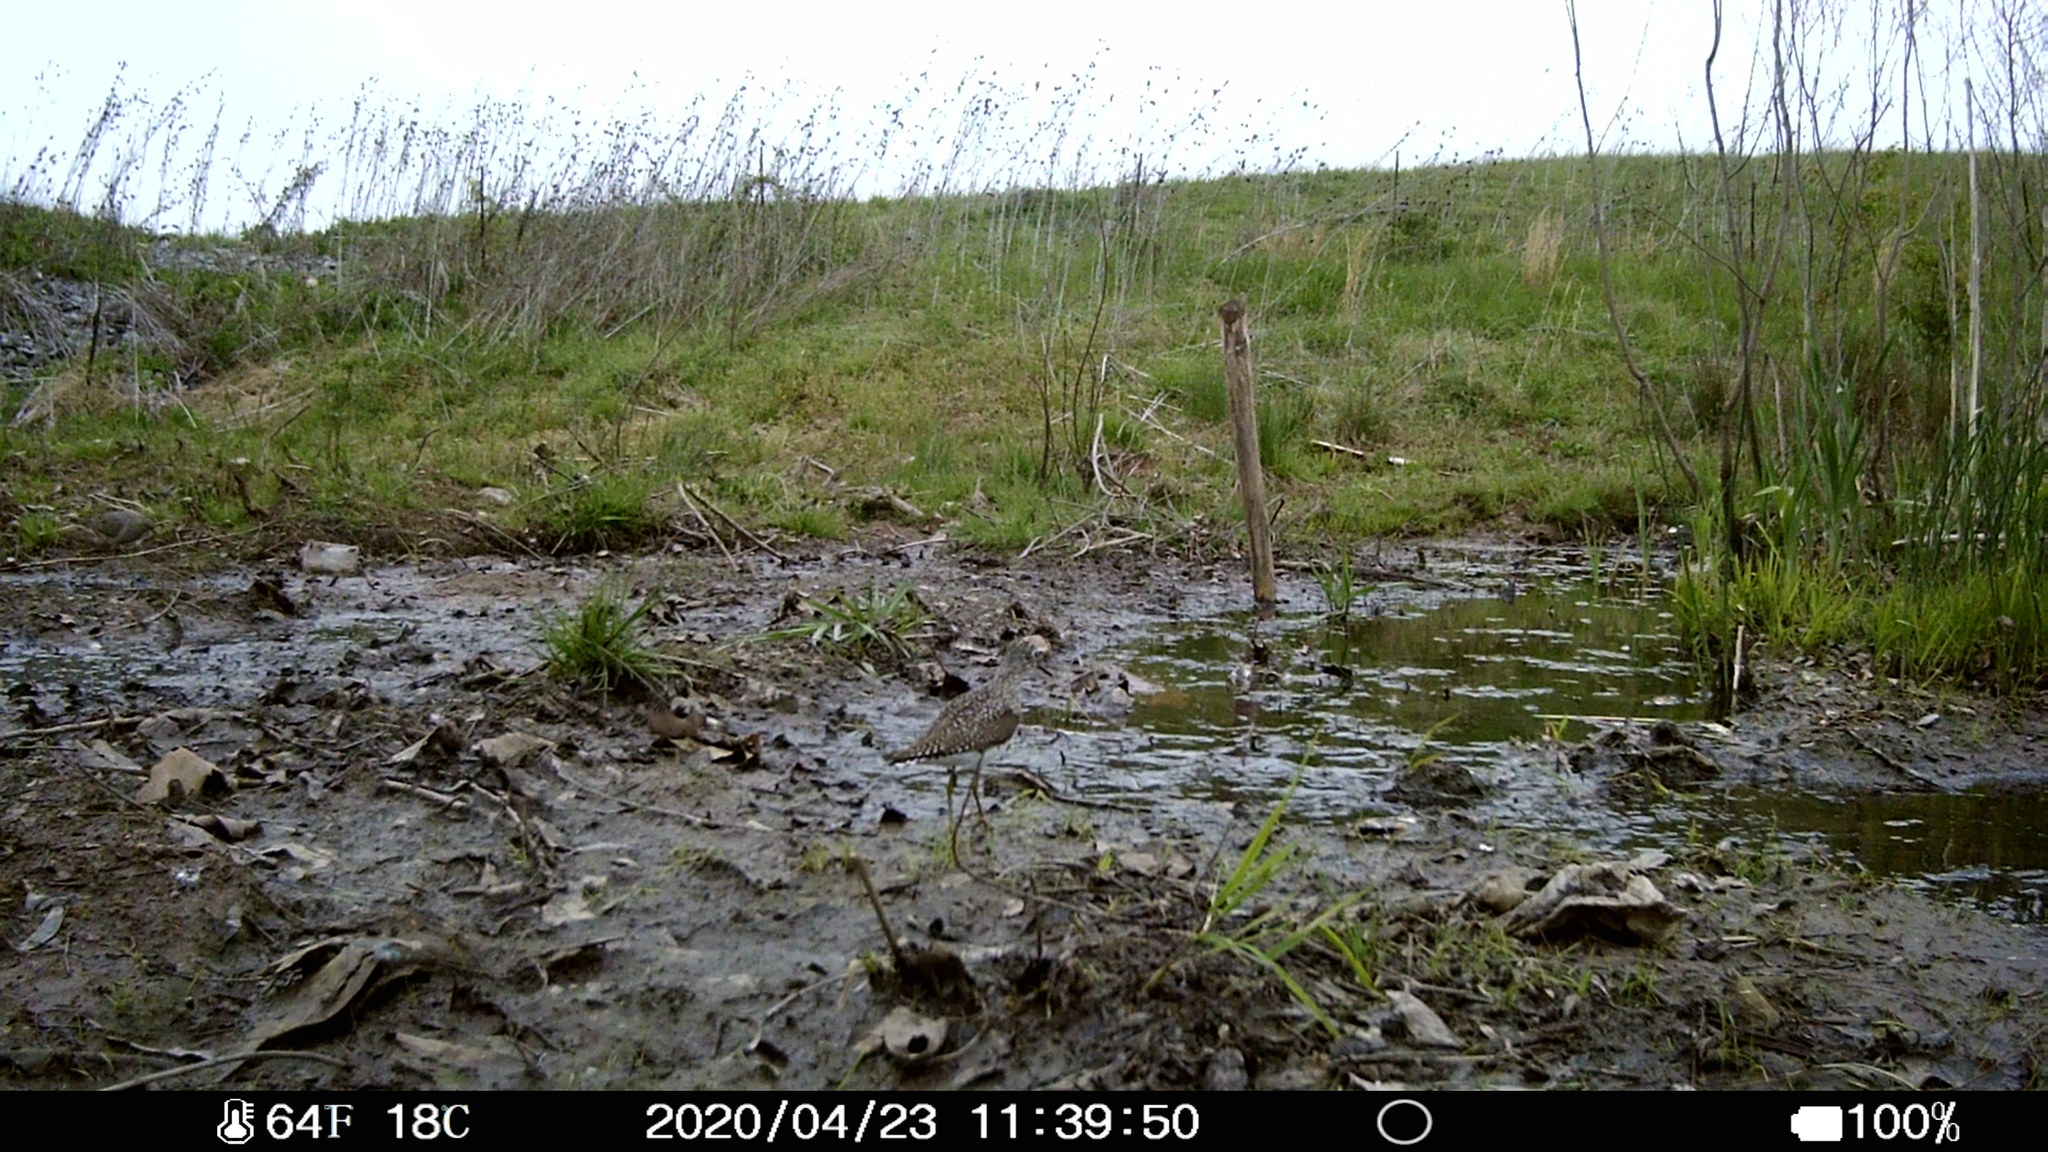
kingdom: Animalia
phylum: Chordata
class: Aves
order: Charadriiformes
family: Scolopacidae
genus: Tringa
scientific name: Tringa solitaria
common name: Solitary sandpiper
